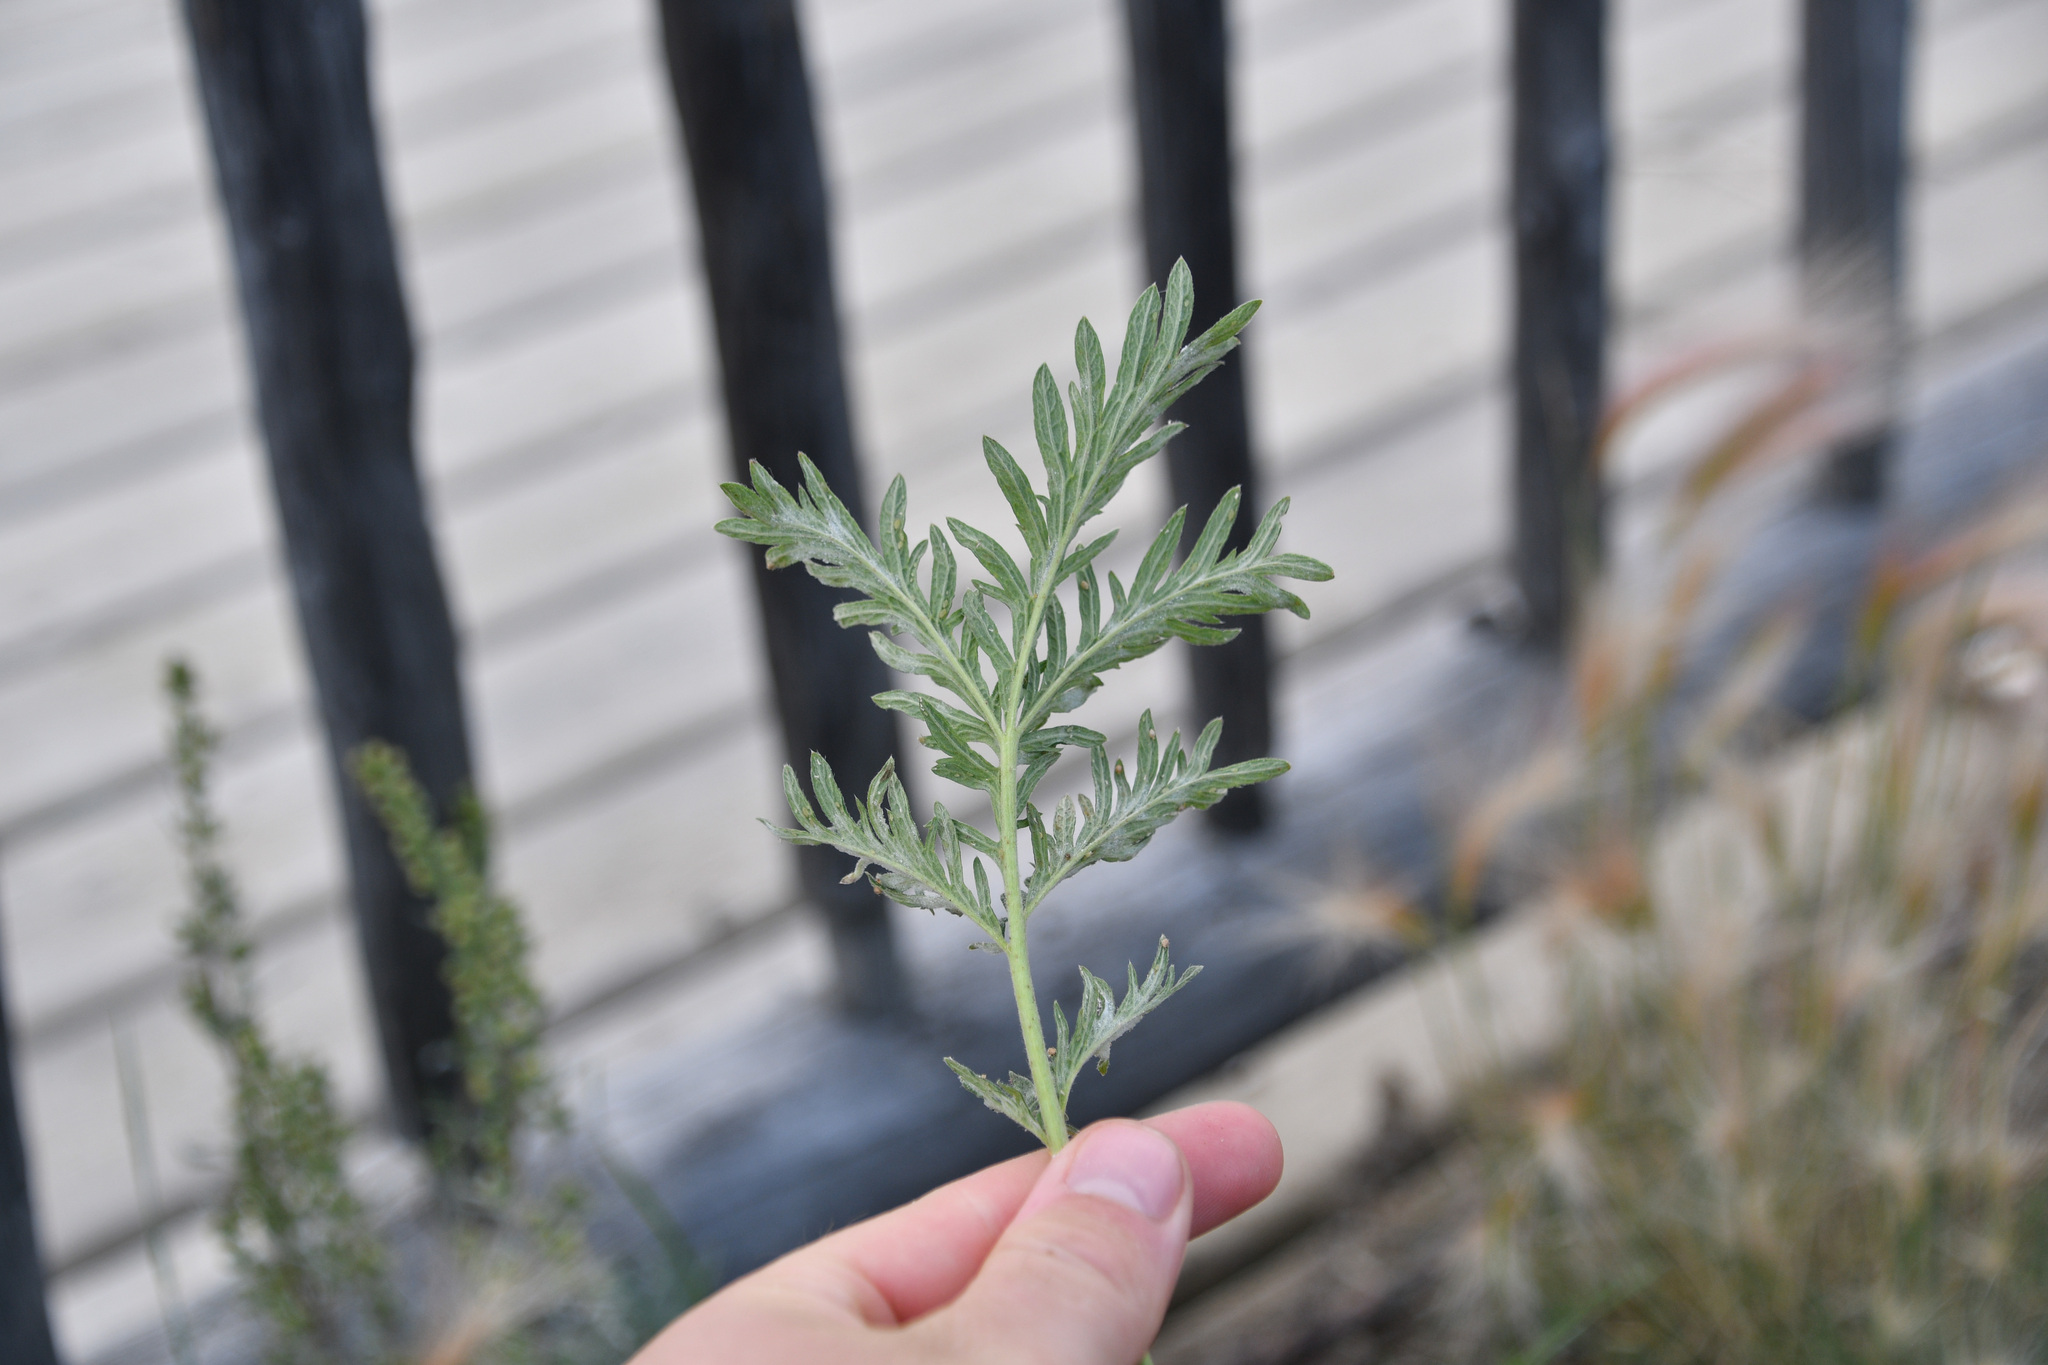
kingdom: Plantae
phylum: Tracheophyta
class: Magnoliopsida
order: Rosales
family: Rosaceae
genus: Potentilla
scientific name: Potentilla litoralis
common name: Coast cinquefoil
